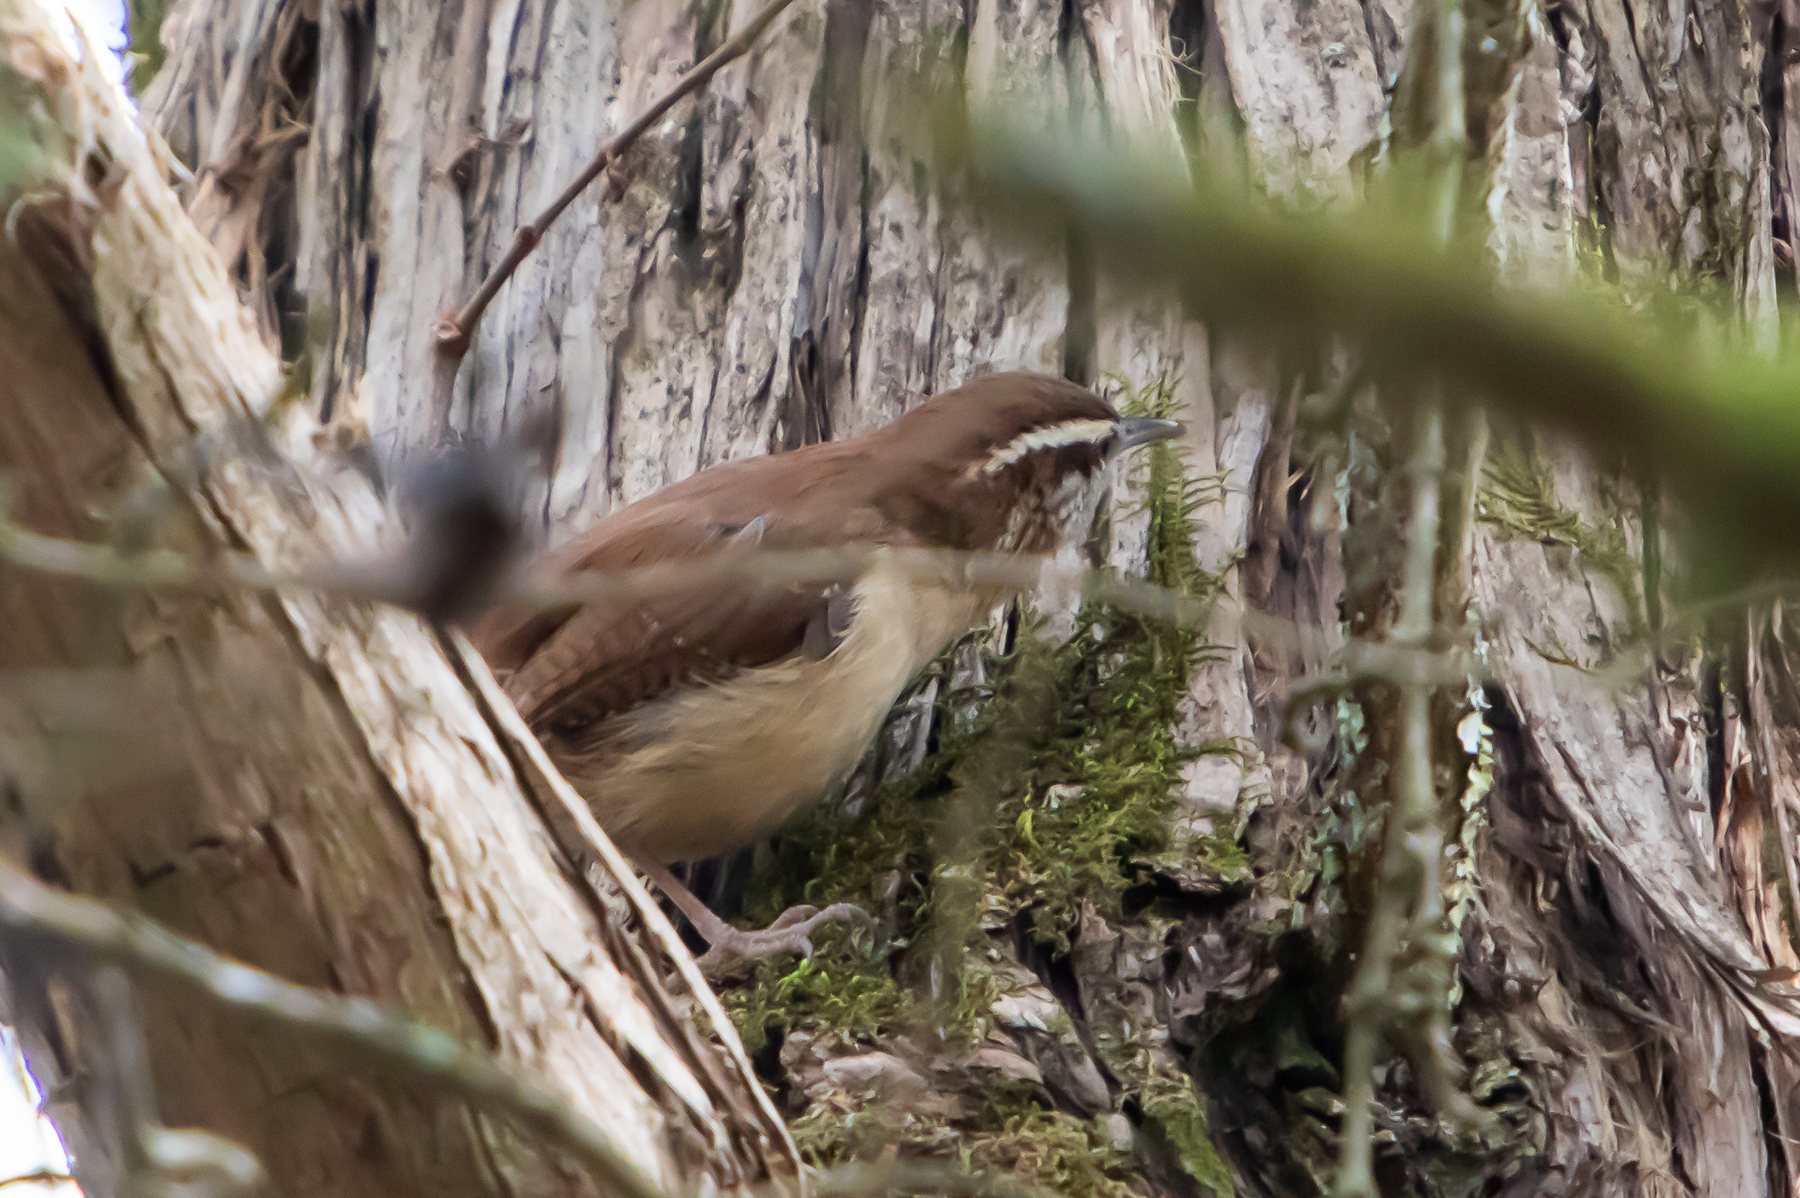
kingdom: Animalia
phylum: Chordata
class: Aves
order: Passeriformes
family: Troglodytidae
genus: Thryothorus
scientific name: Thryothorus ludovicianus
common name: Carolina wren
